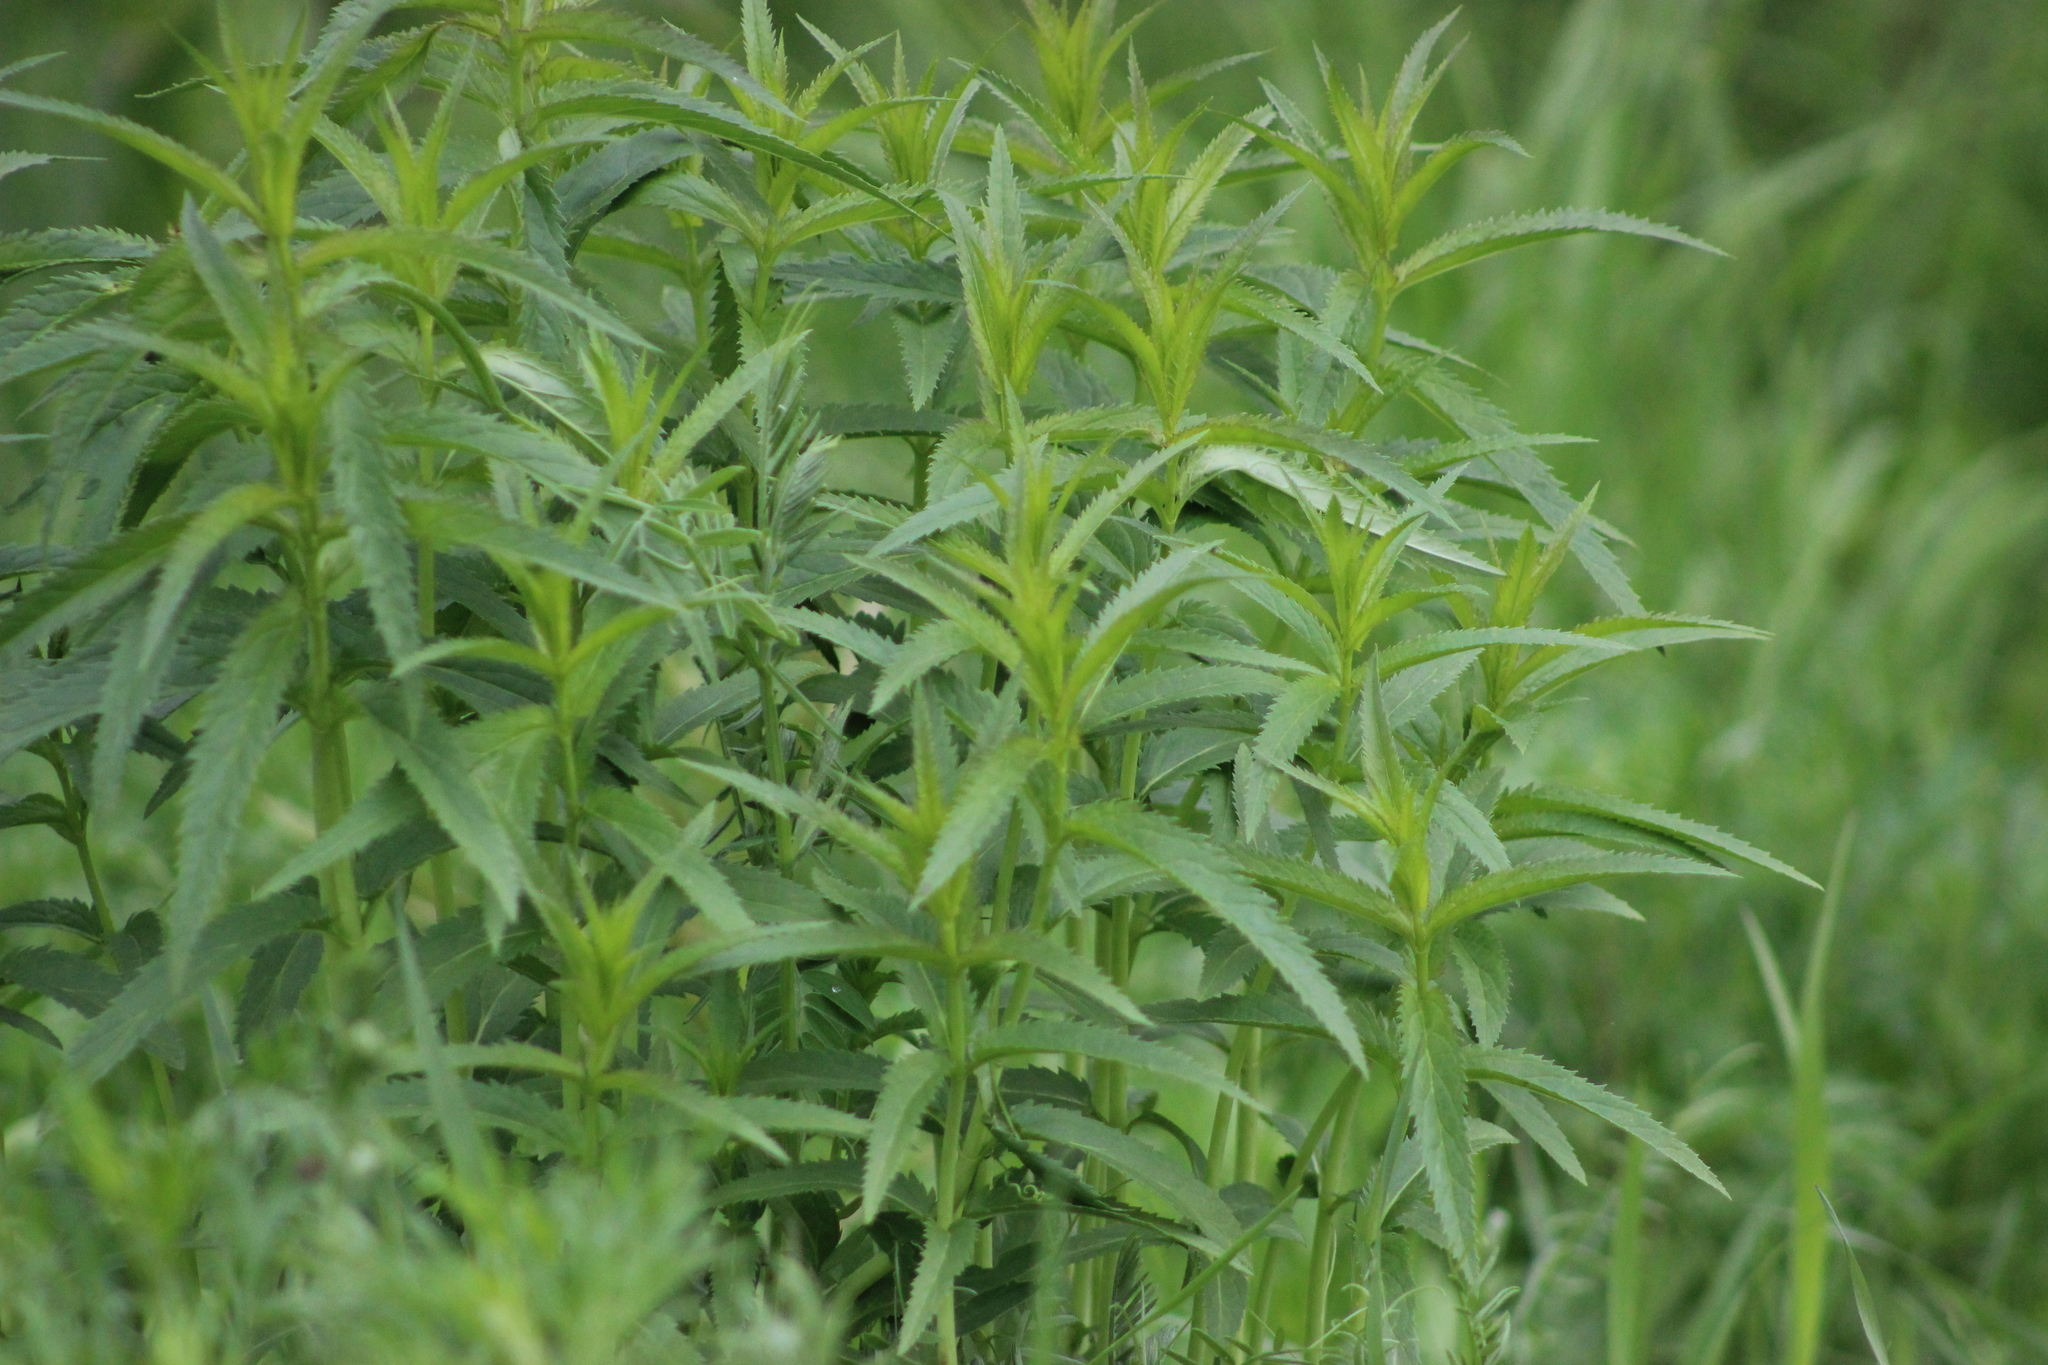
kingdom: Plantae
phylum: Tracheophyta
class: Magnoliopsida
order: Lamiales
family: Plantaginaceae
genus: Veronica
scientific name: Veronica longifolia
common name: Garden speedwell
